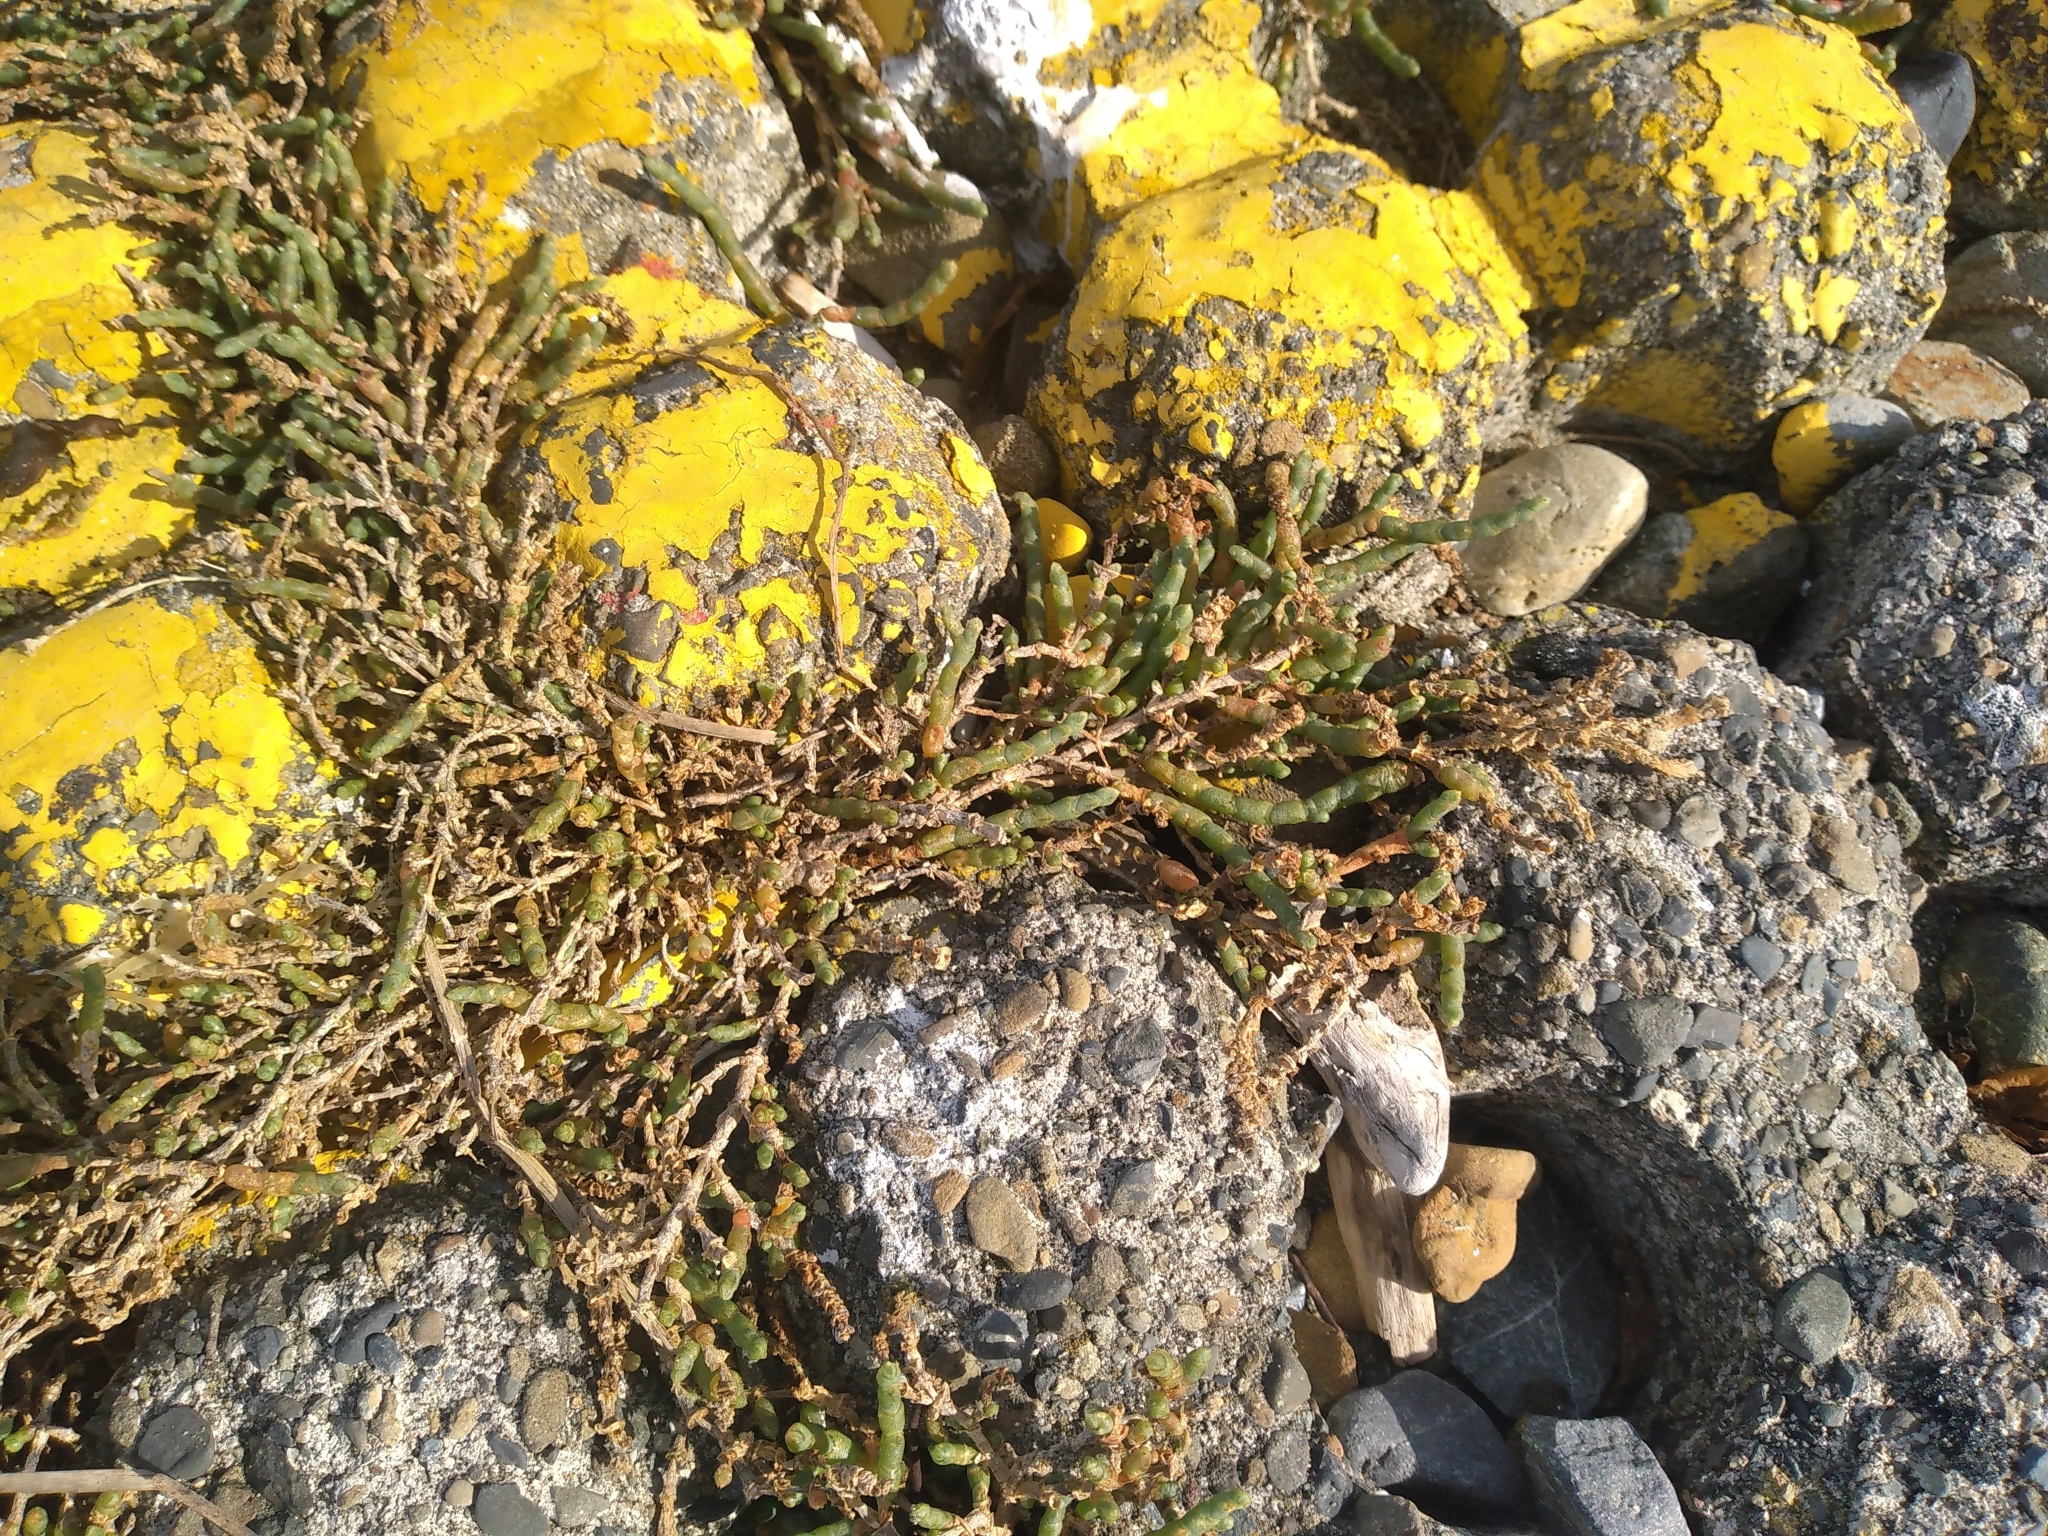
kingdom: Plantae
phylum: Tracheophyta
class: Magnoliopsida
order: Caryophyllales
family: Amaranthaceae
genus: Salicornia
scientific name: Salicornia quinqueflora
